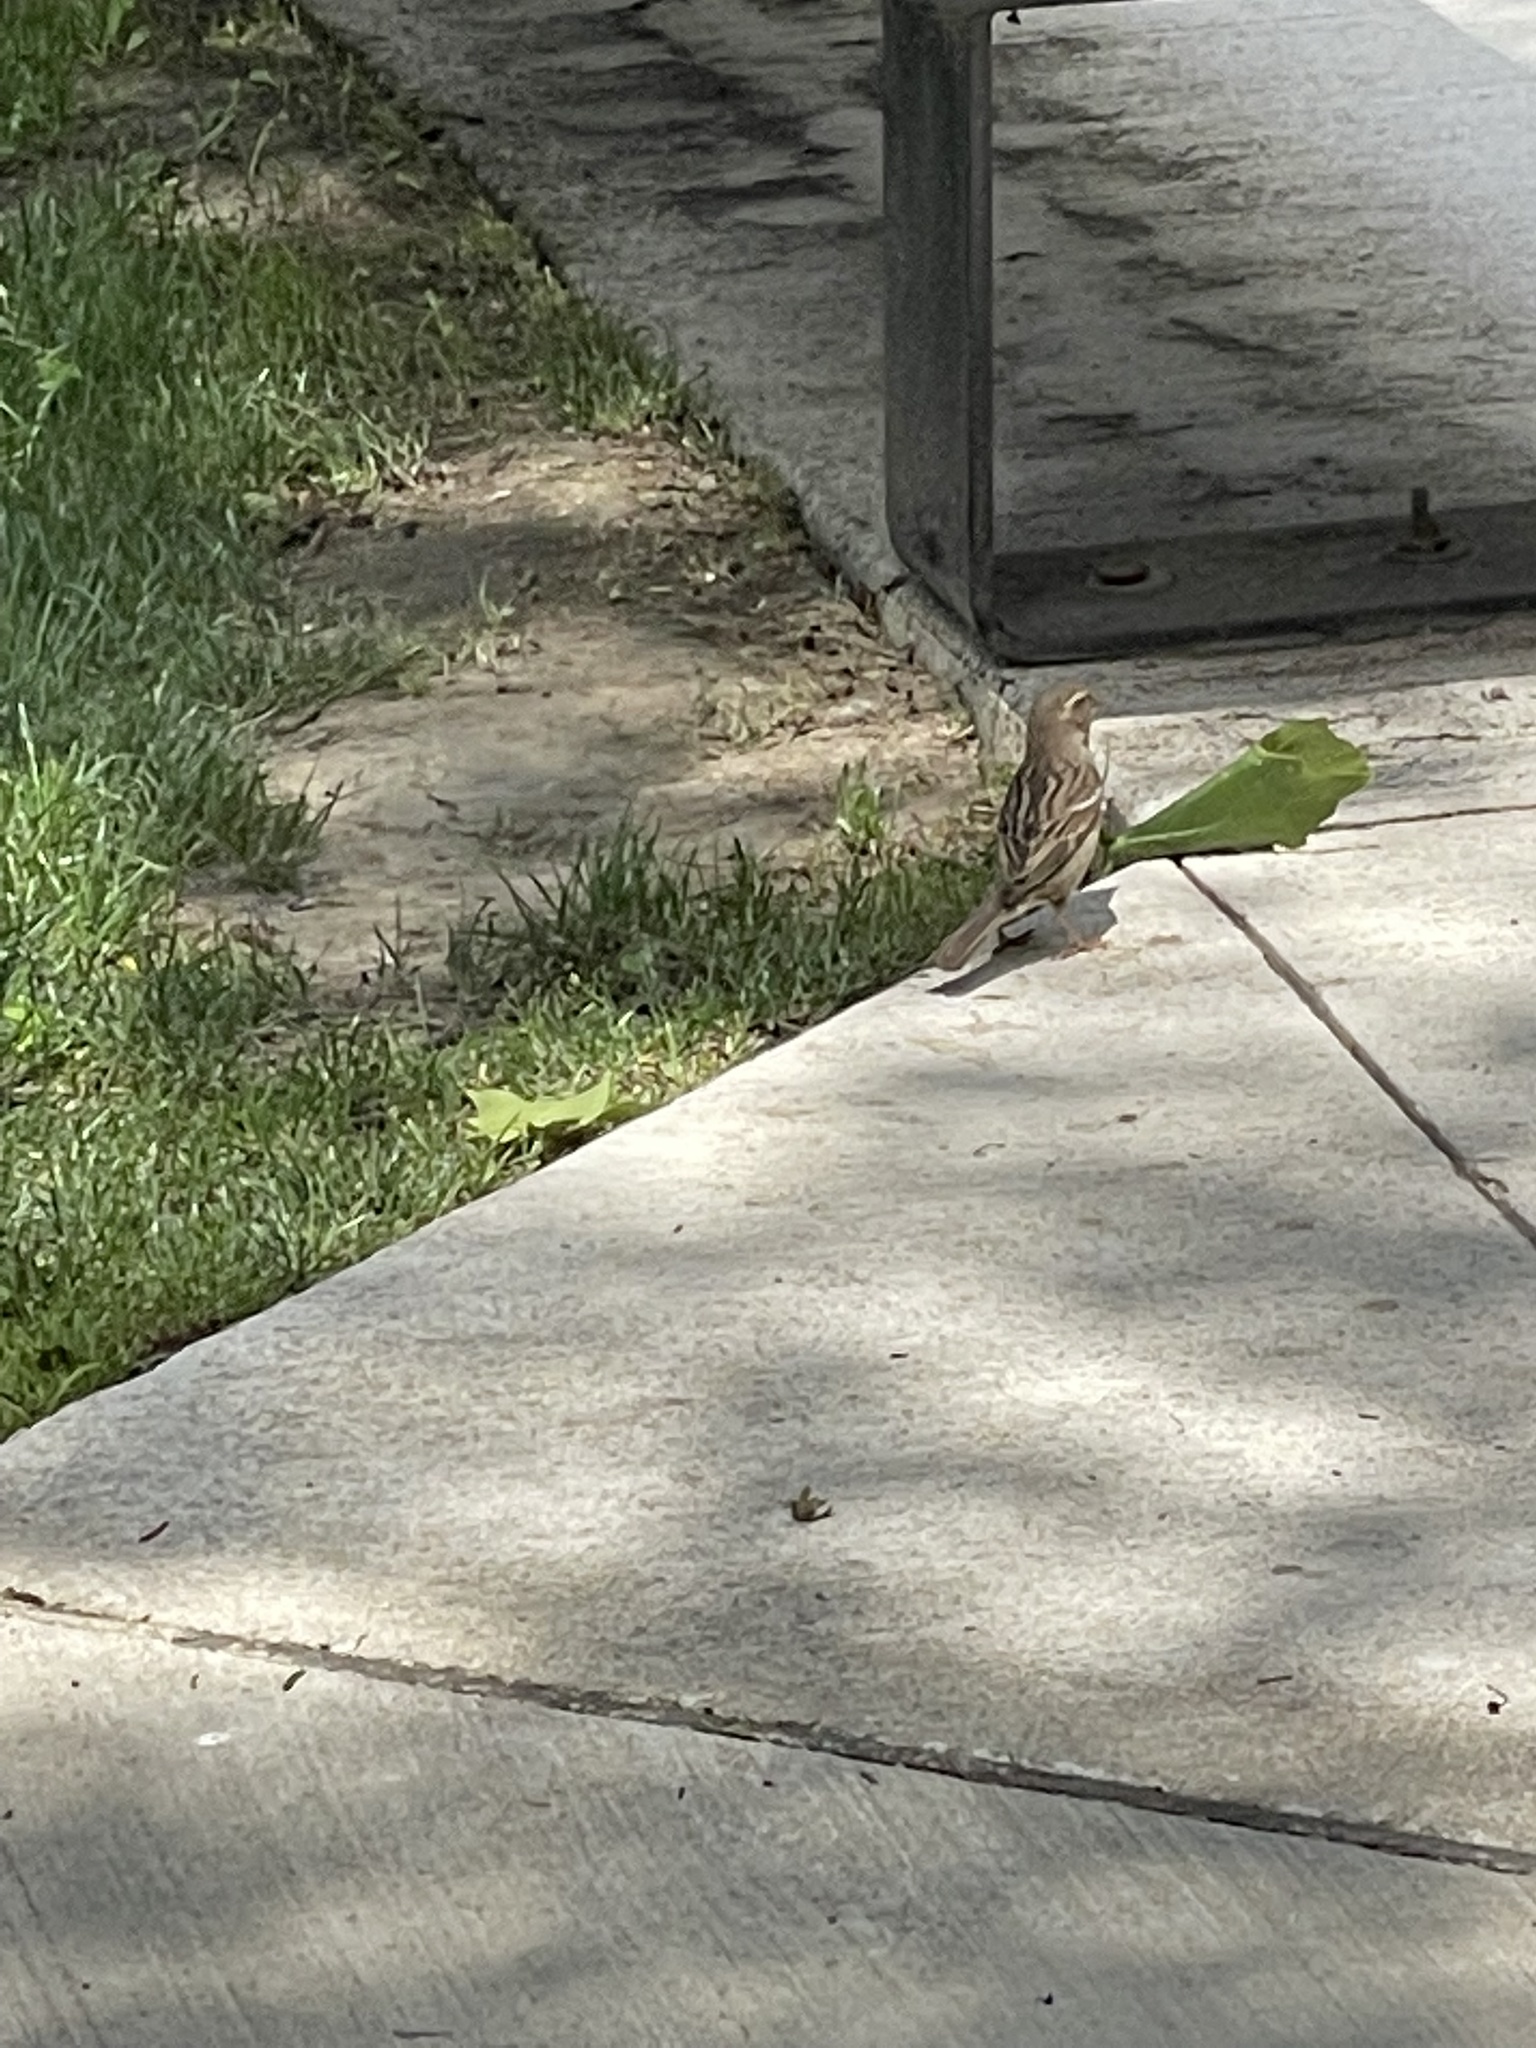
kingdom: Animalia
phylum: Chordata
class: Aves
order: Passeriformes
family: Passeridae
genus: Passer
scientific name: Passer domesticus
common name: House sparrow
